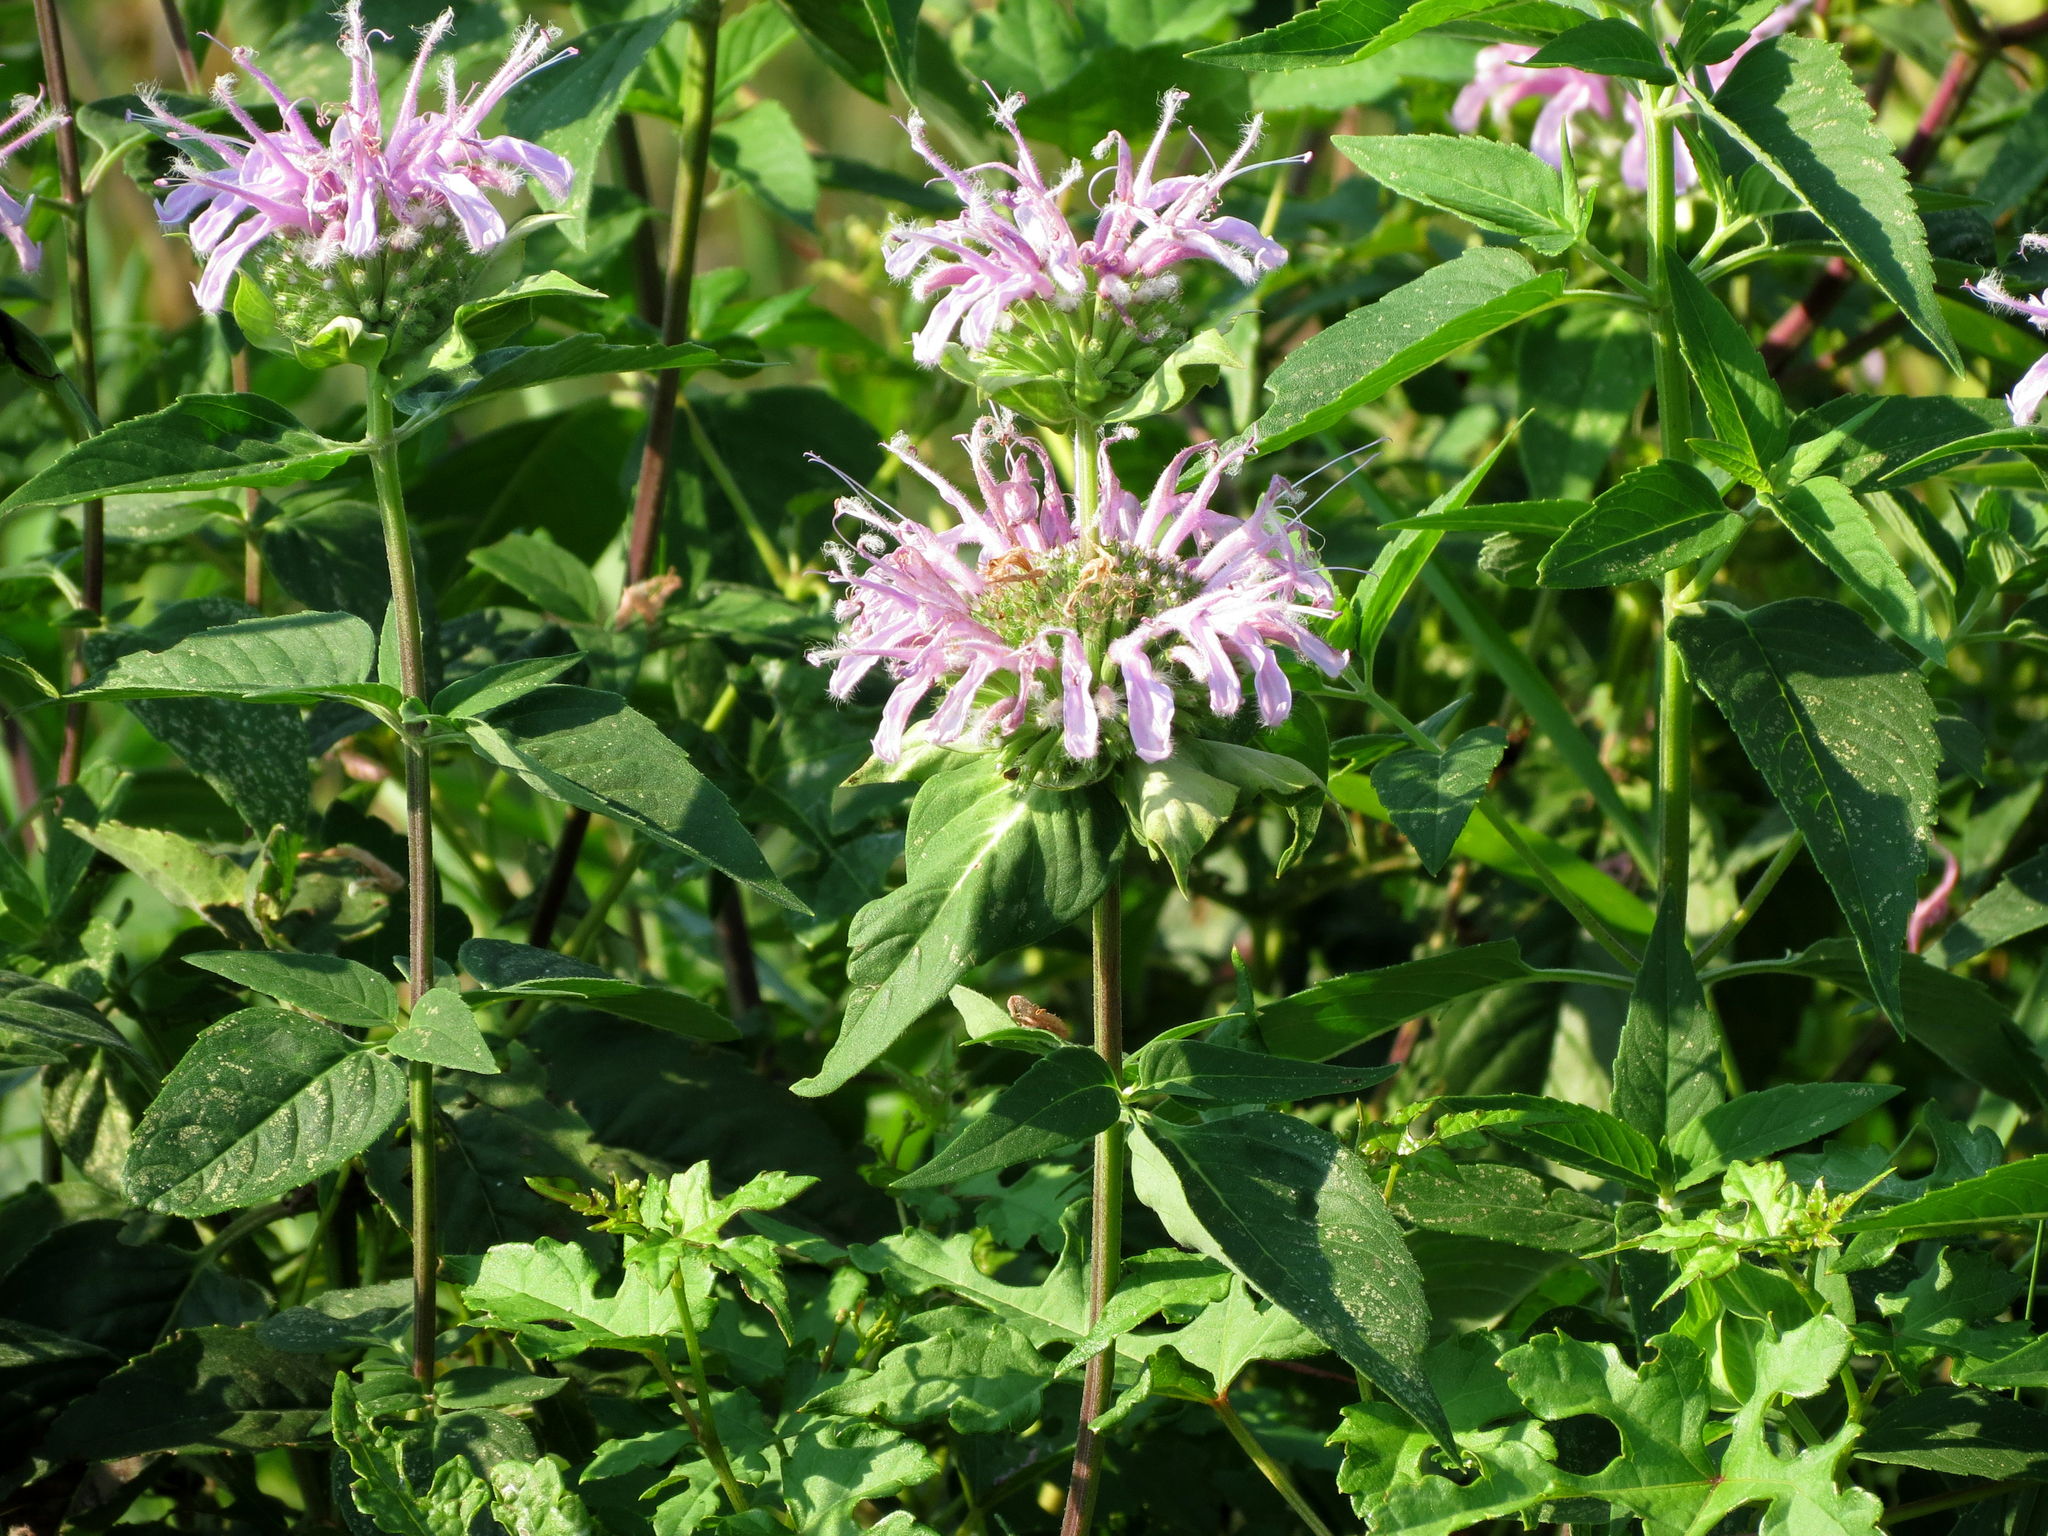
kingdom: Plantae
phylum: Tracheophyta
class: Magnoliopsida
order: Lamiales
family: Lamiaceae
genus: Monarda
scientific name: Monarda fistulosa
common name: Purple beebalm
